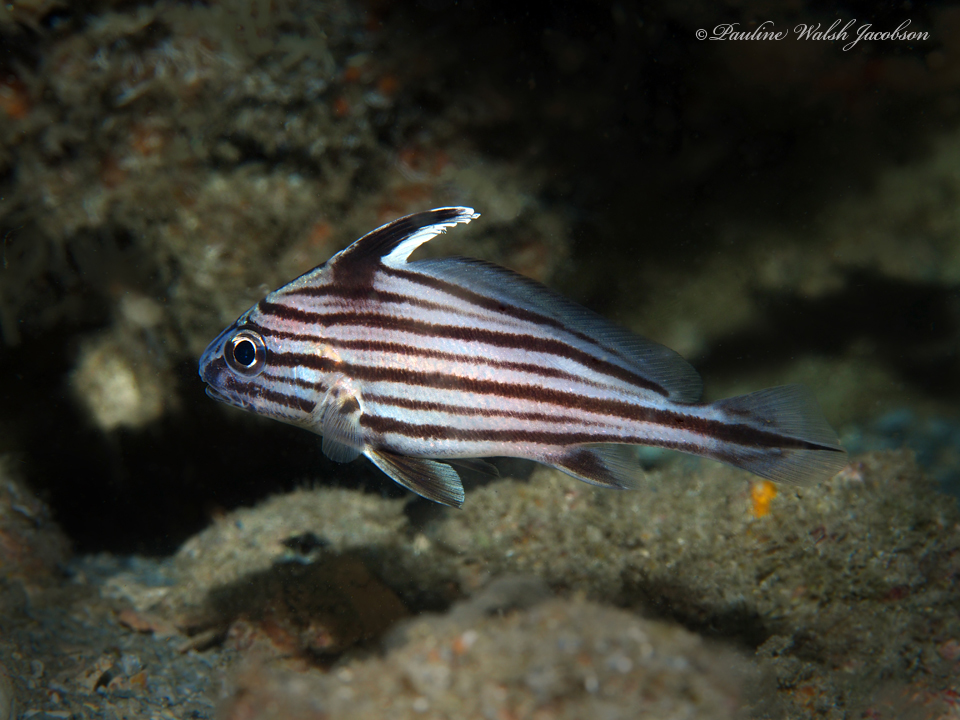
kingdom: Animalia
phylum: Chordata
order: Perciformes
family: Sciaenidae
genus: Pareques
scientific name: Pareques acuminatus
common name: High-hat
